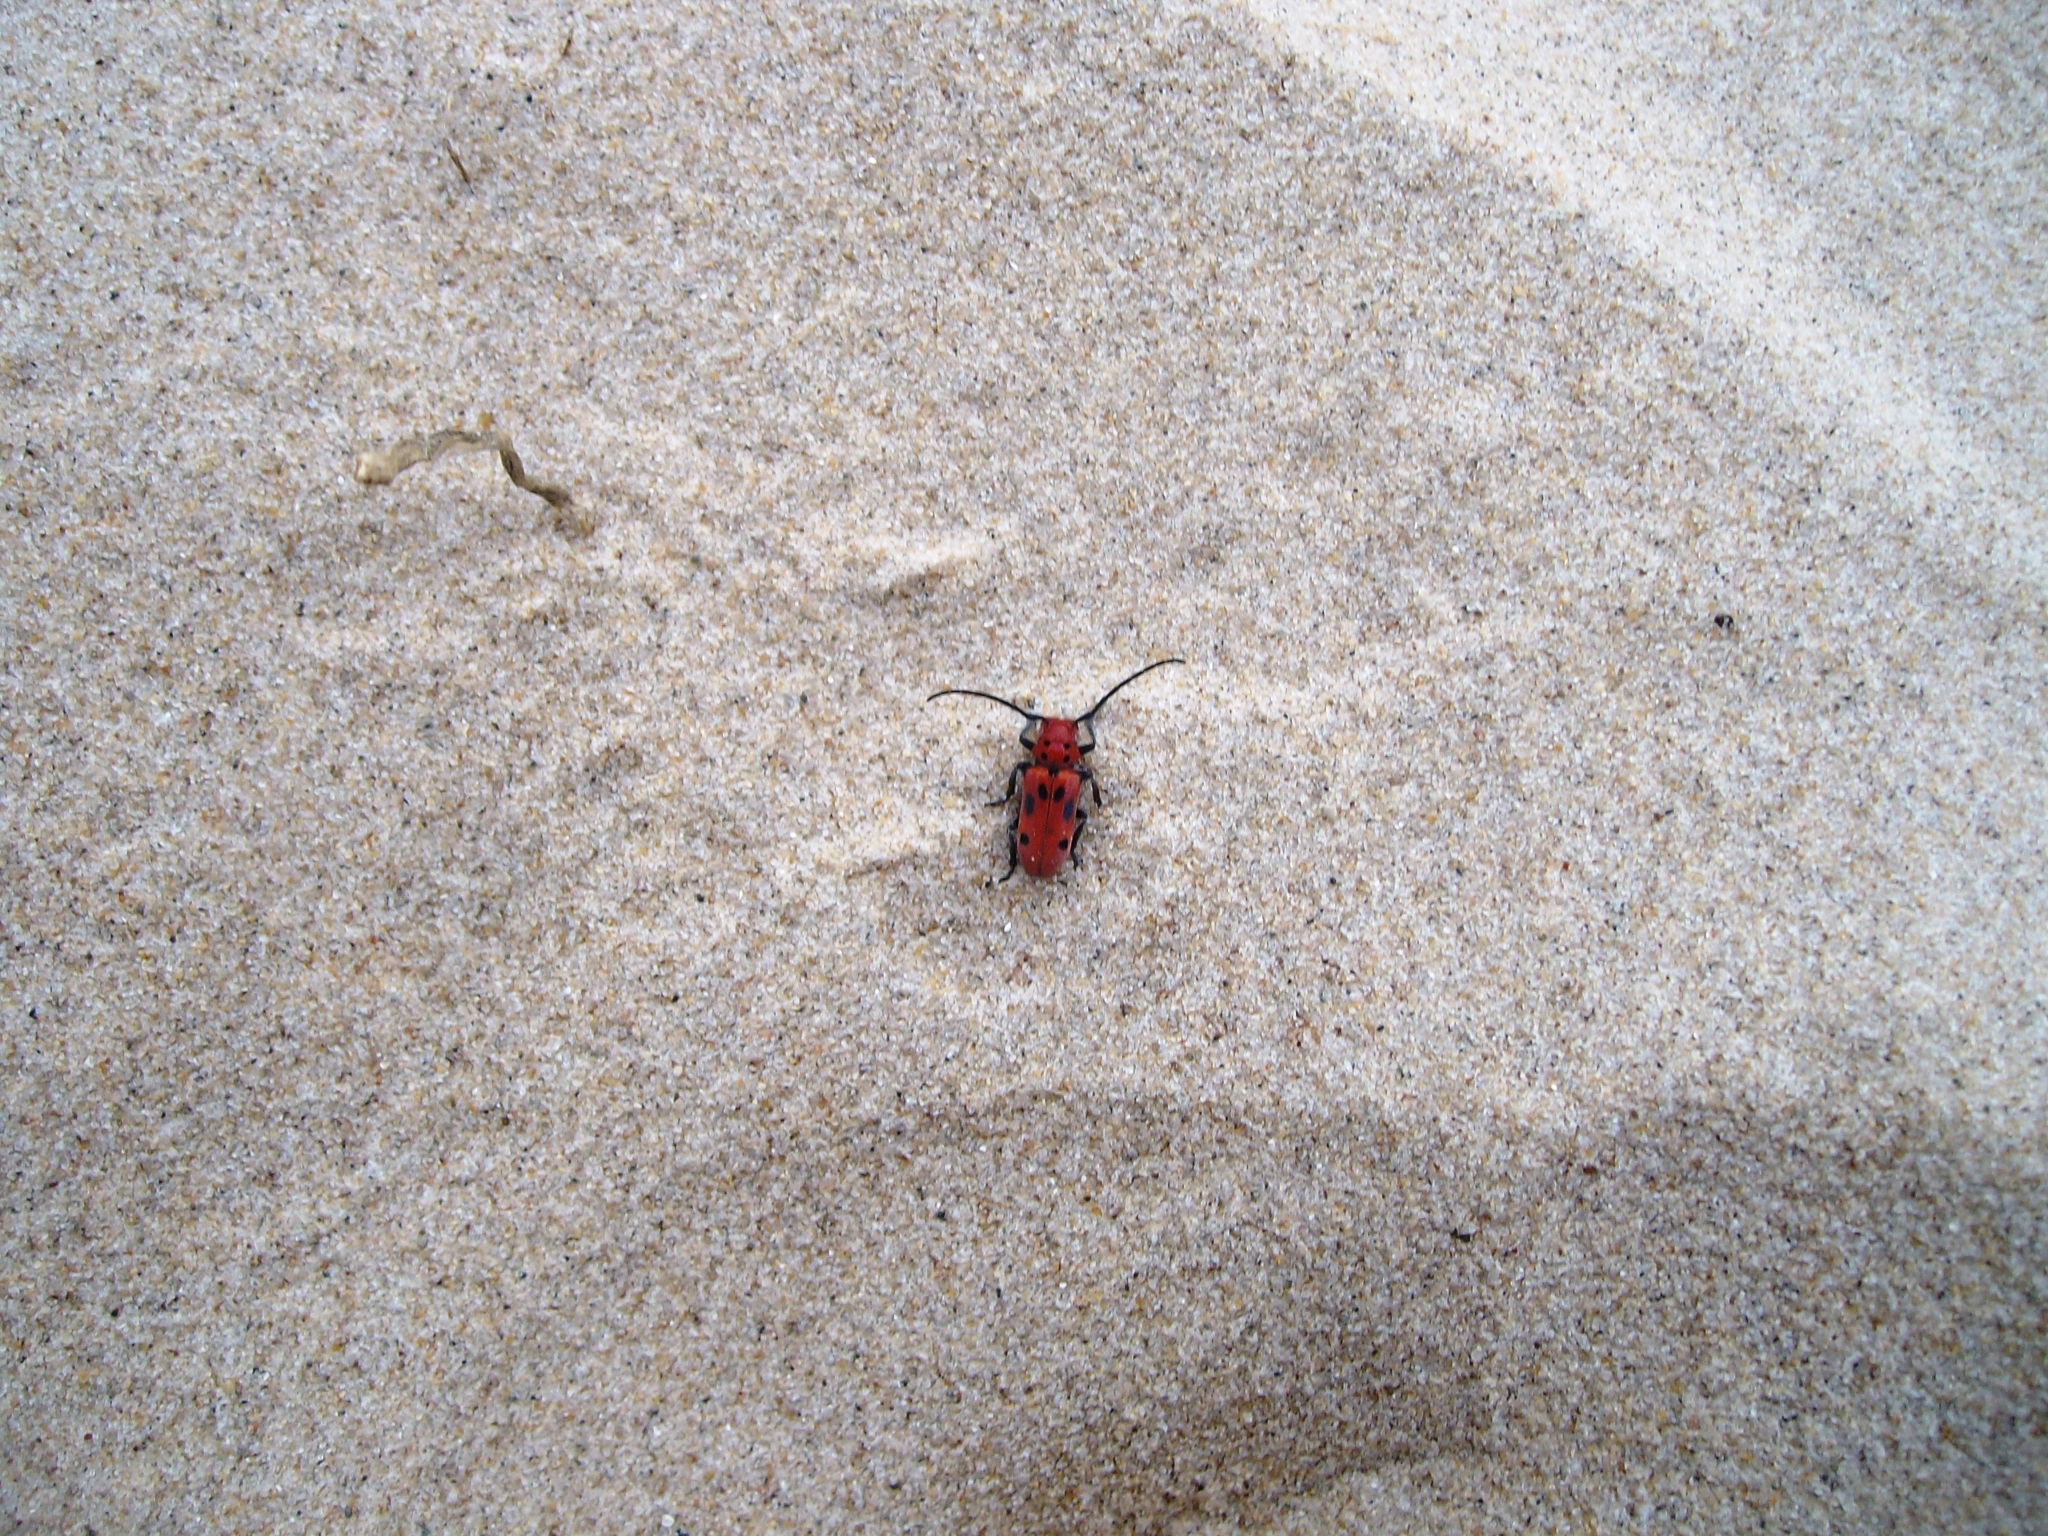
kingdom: Animalia
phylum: Arthropoda
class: Insecta
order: Coleoptera
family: Cerambycidae
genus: Tetraopes
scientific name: Tetraopes tetrophthalmus
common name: Red milkweed beetle
